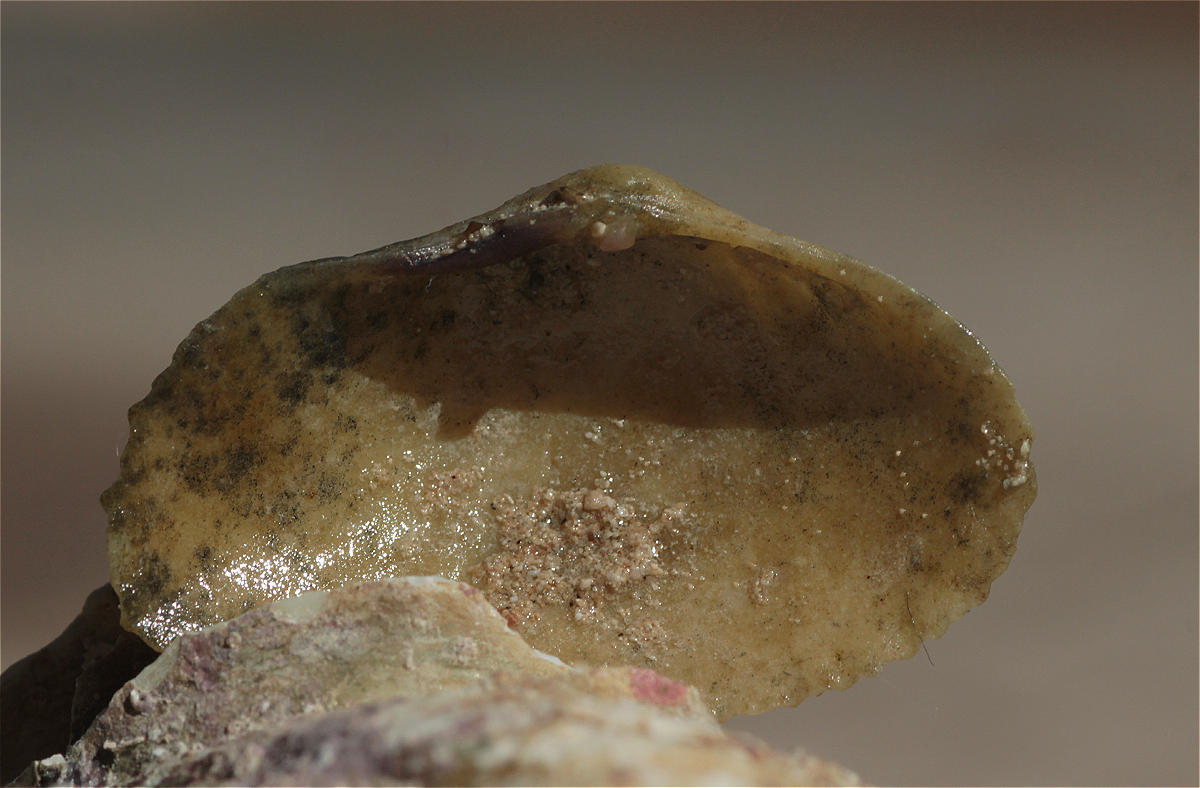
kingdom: Animalia
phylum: Mollusca
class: Bivalvia
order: Cardiida
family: Psammobiidae
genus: Asaphis
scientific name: Asaphis violascens
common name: Pacific asaphis
